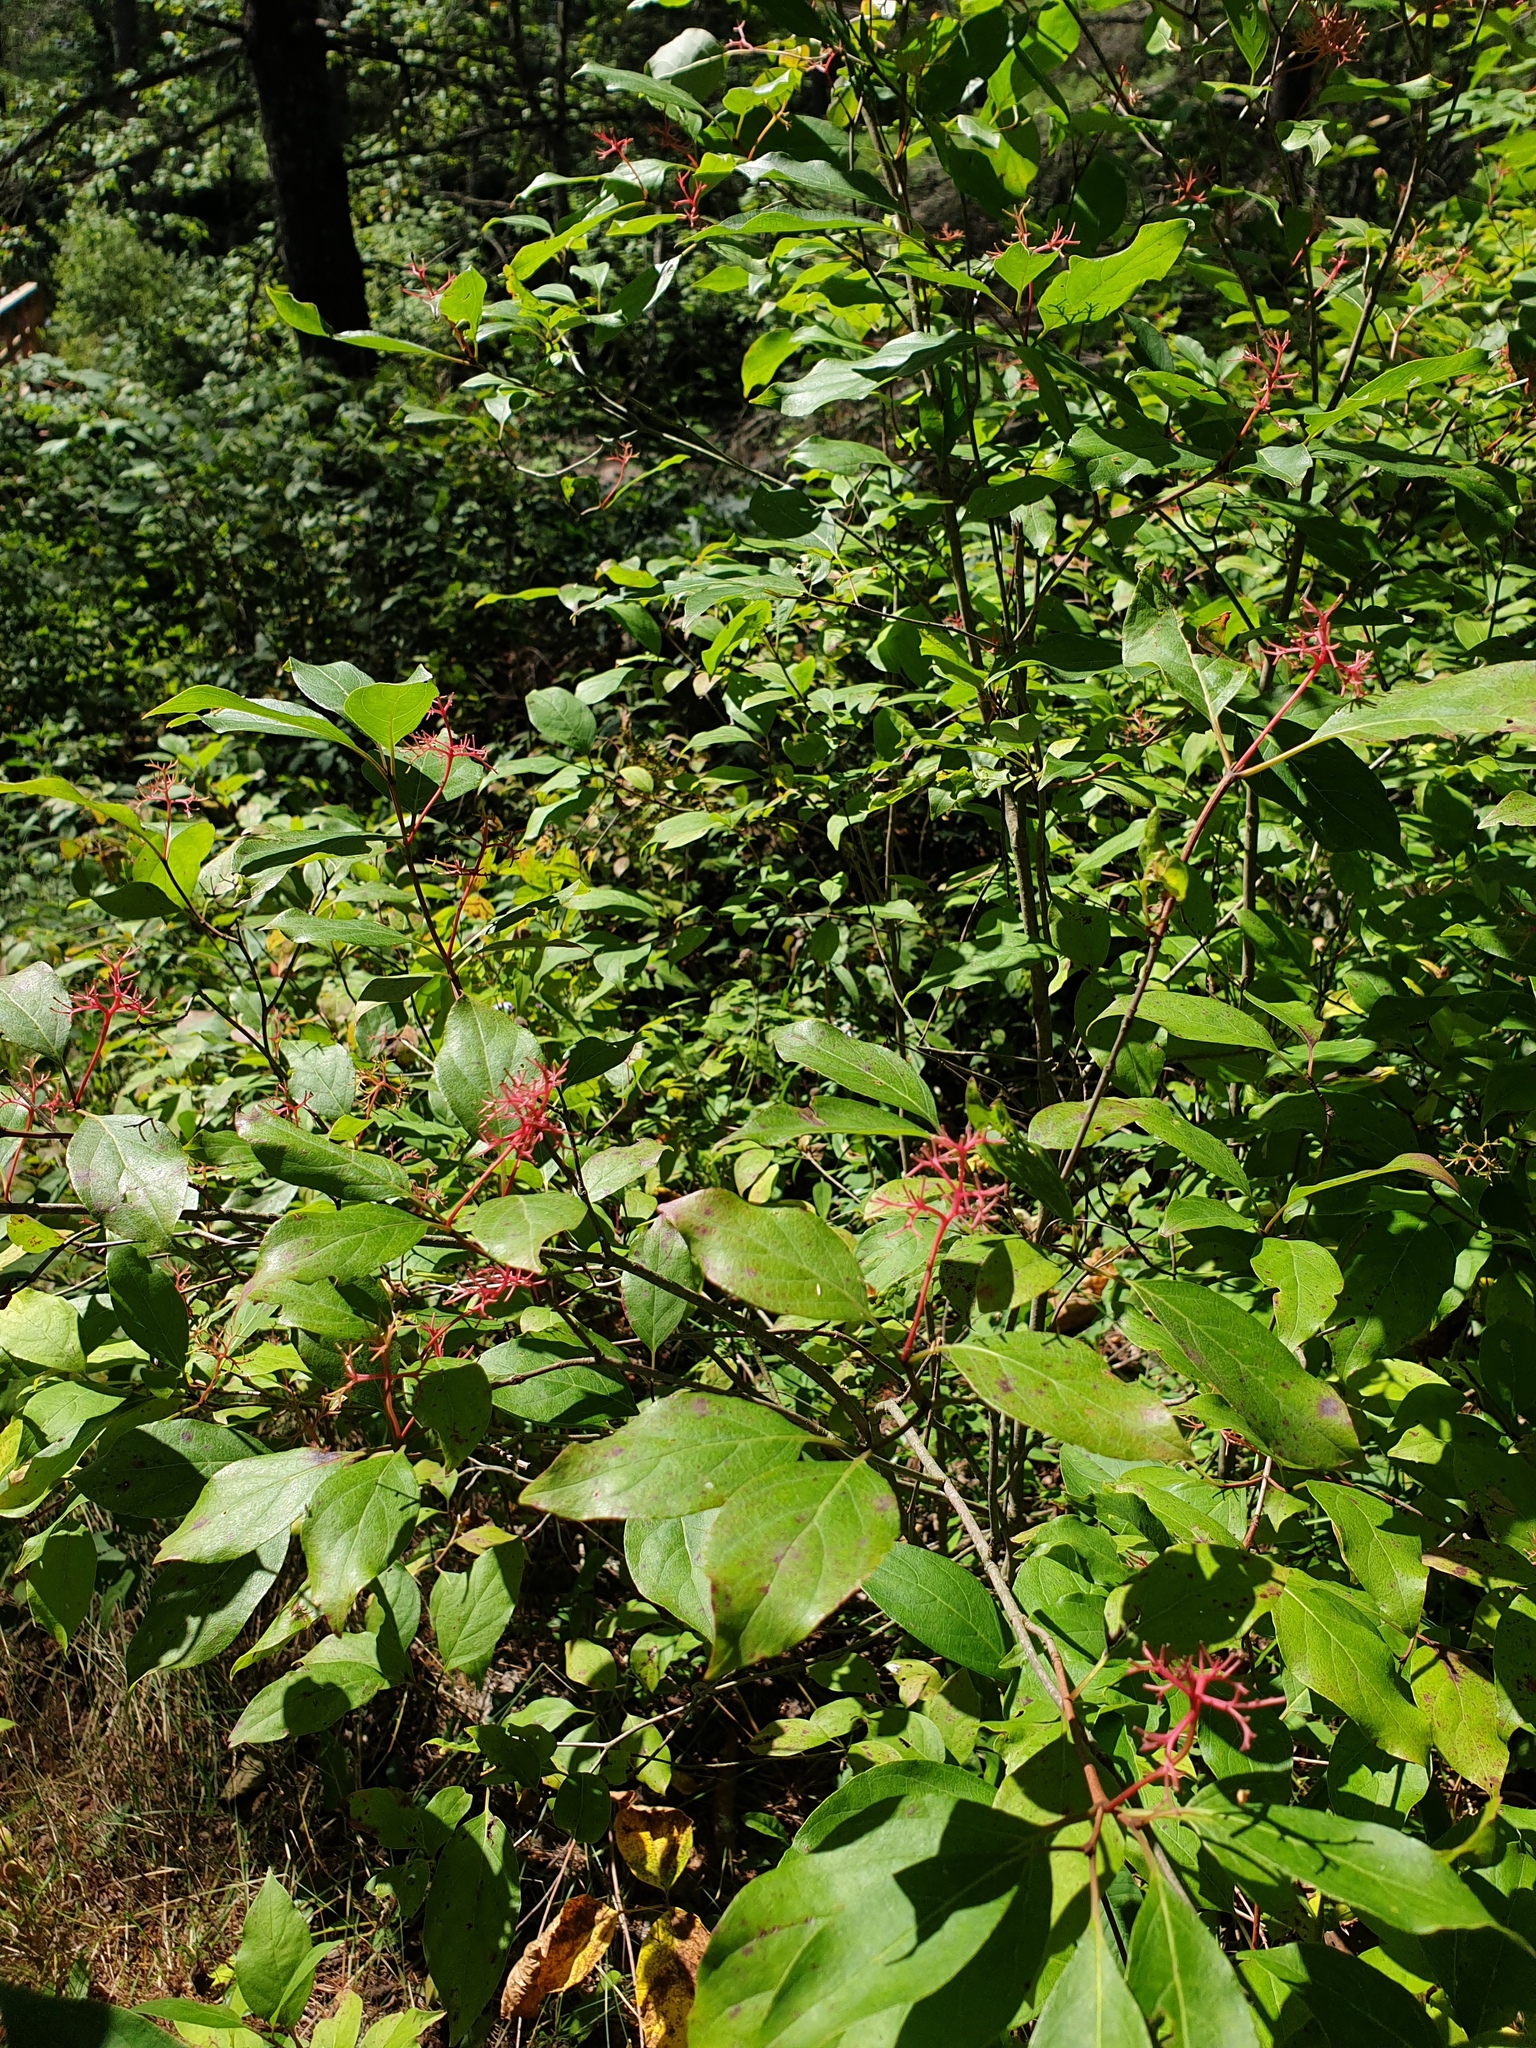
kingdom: Plantae
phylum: Tracheophyta
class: Magnoliopsida
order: Cornales
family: Cornaceae
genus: Cornus
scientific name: Cornus racemosa
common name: Panicled dogwood
